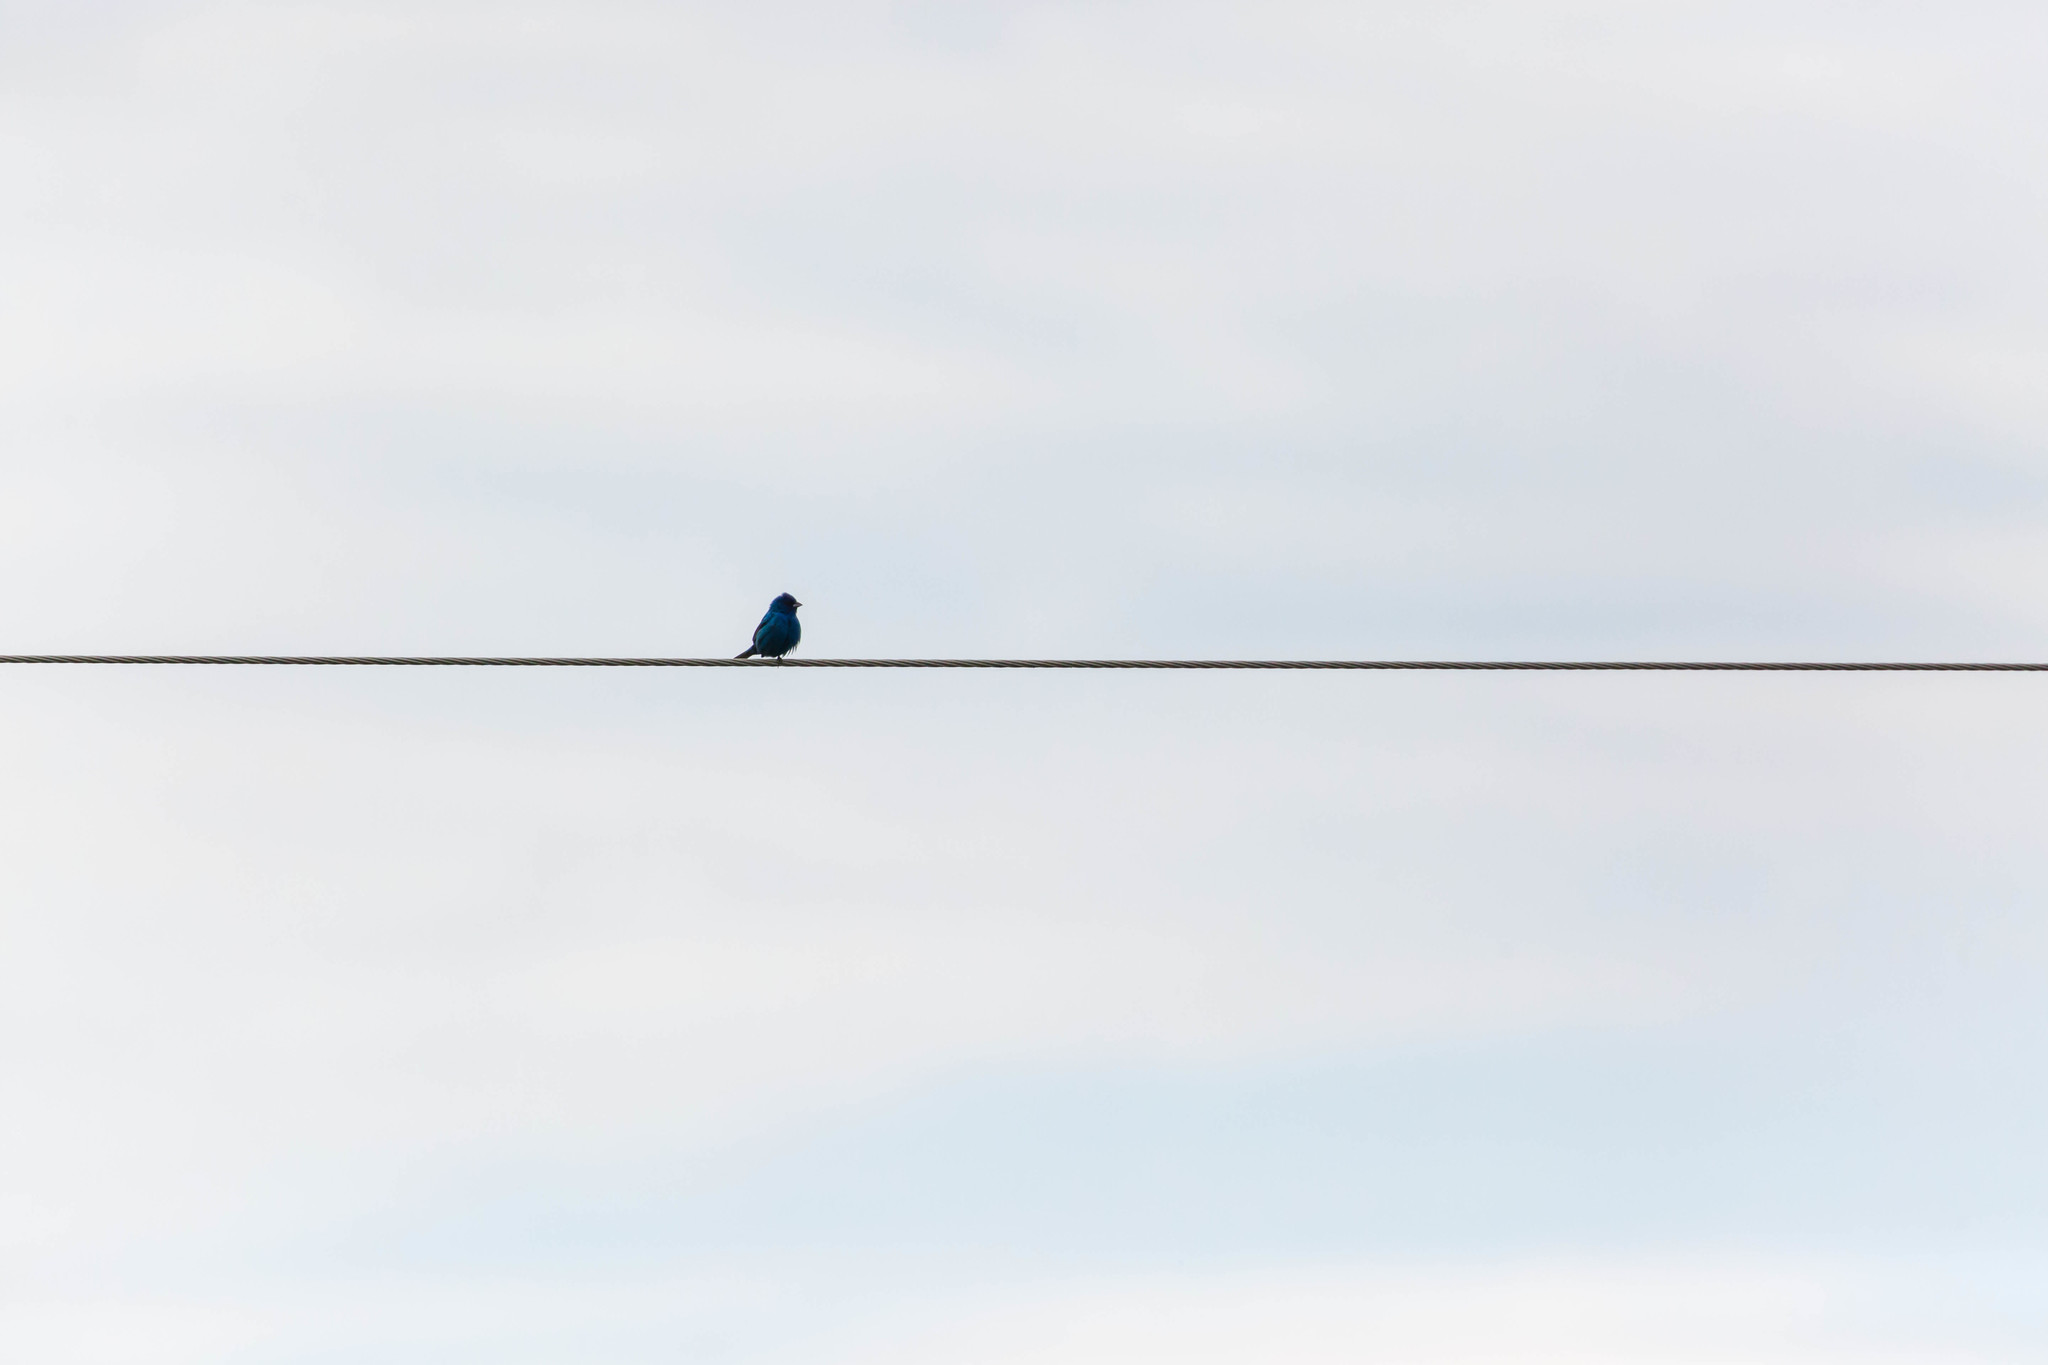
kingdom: Animalia
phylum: Chordata
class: Aves
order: Passeriformes
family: Cardinalidae
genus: Passerina
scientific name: Passerina cyanea
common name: Indigo bunting
